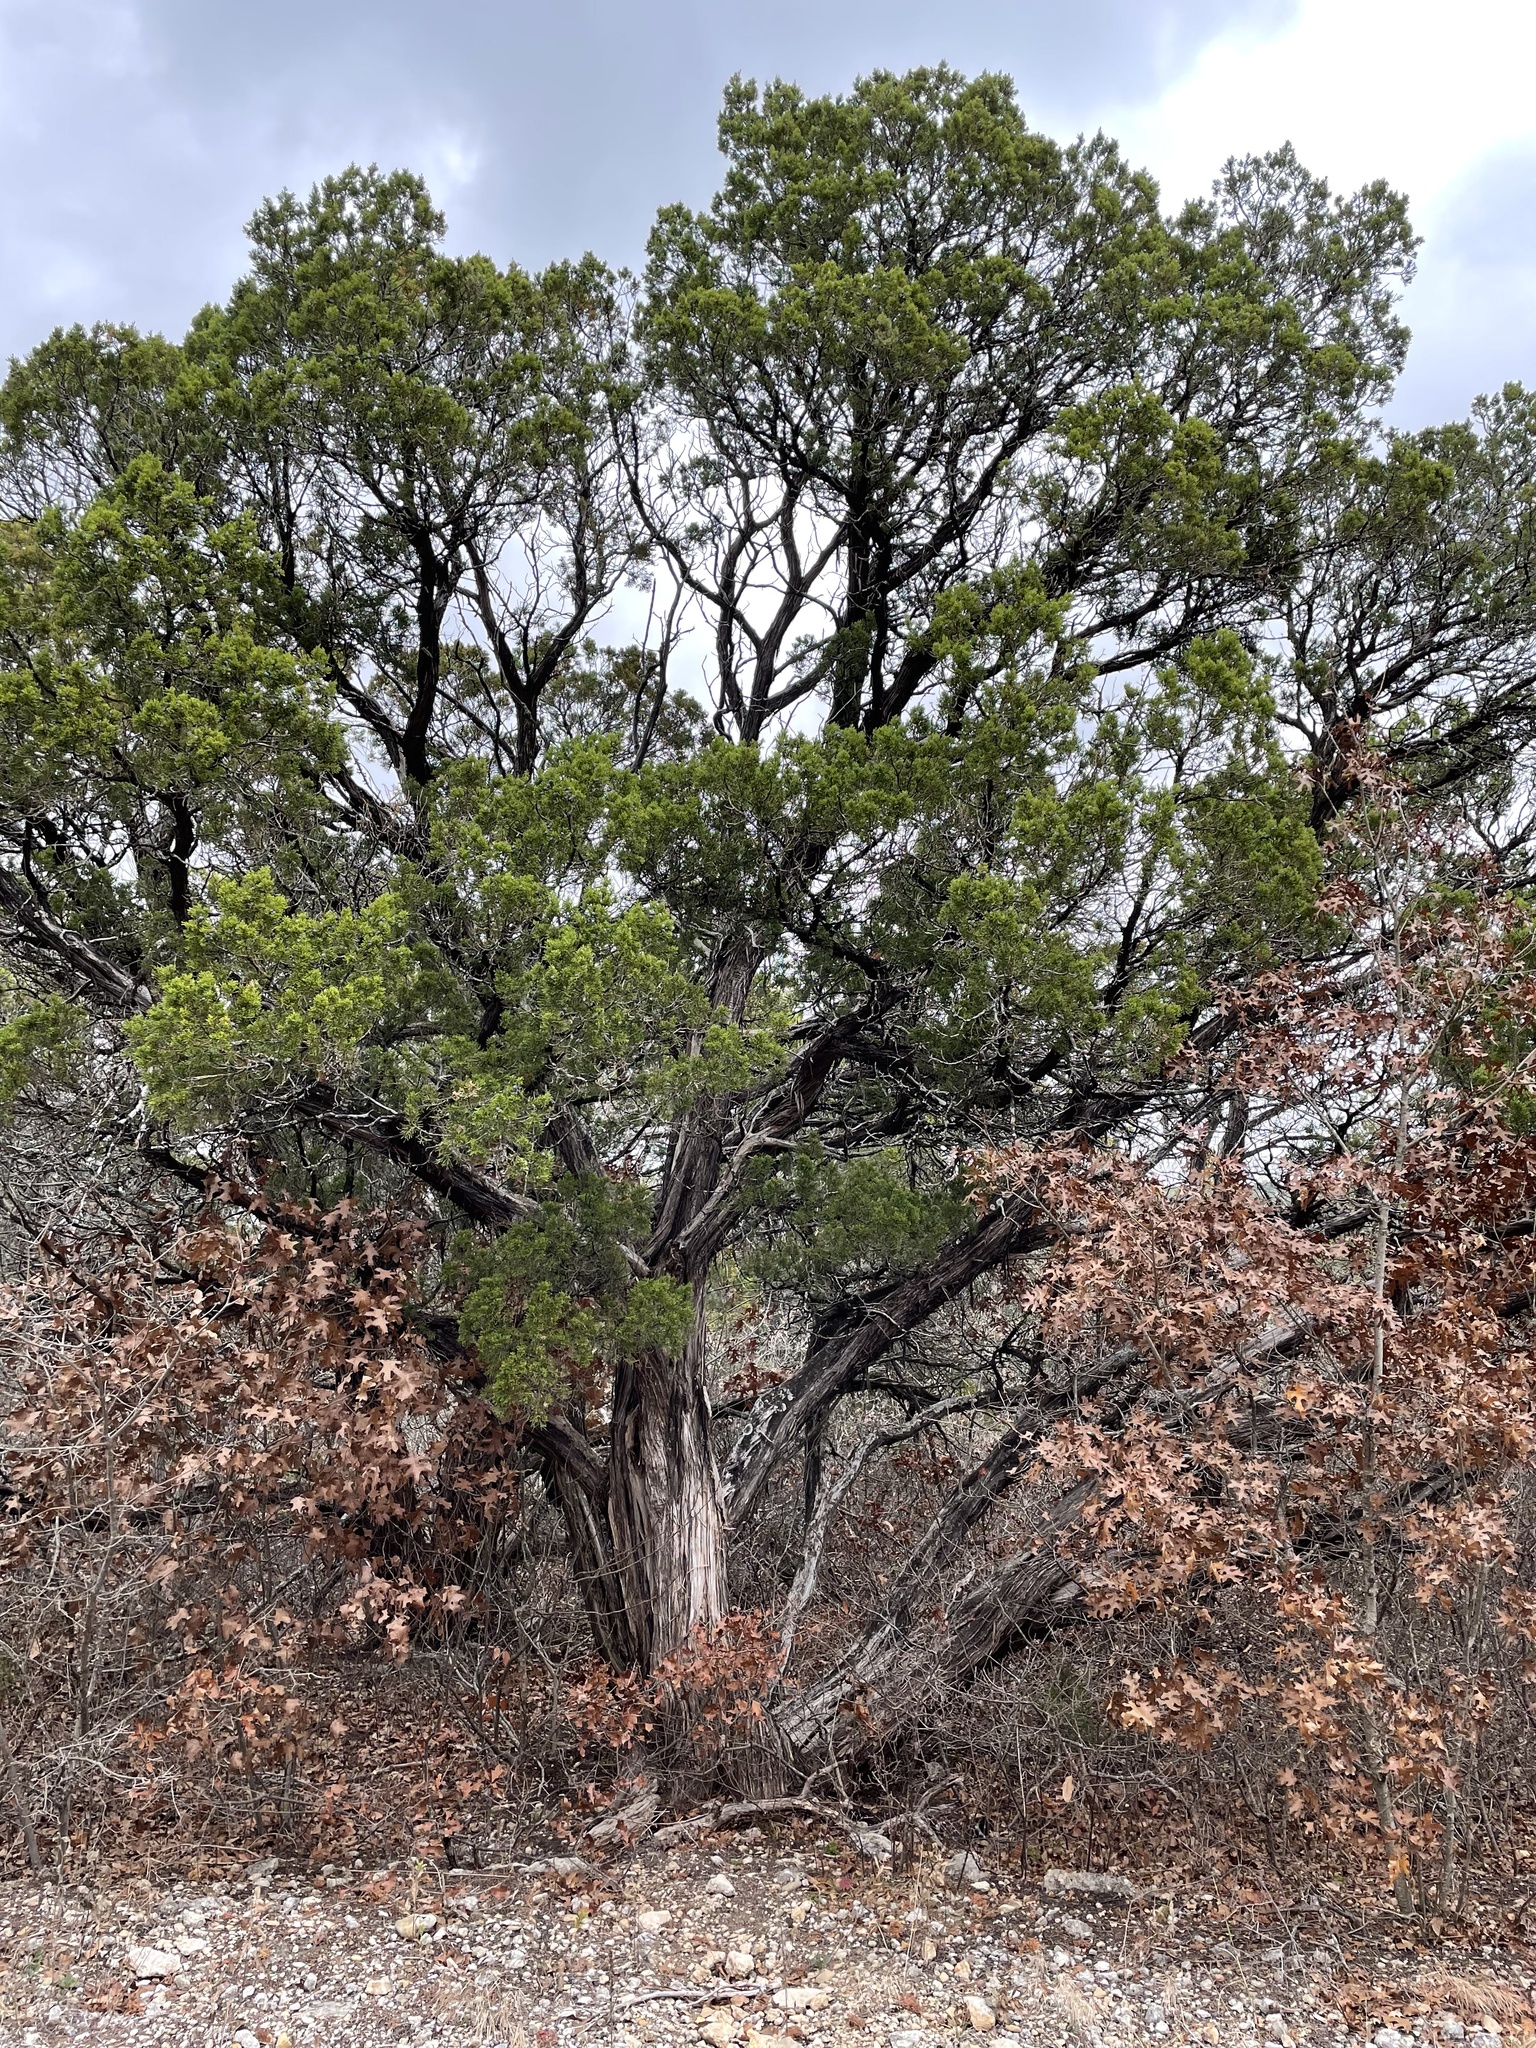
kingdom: Plantae
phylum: Tracheophyta
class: Pinopsida
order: Pinales
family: Cupressaceae
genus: Juniperus
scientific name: Juniperus ashei
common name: Mexican juniper
